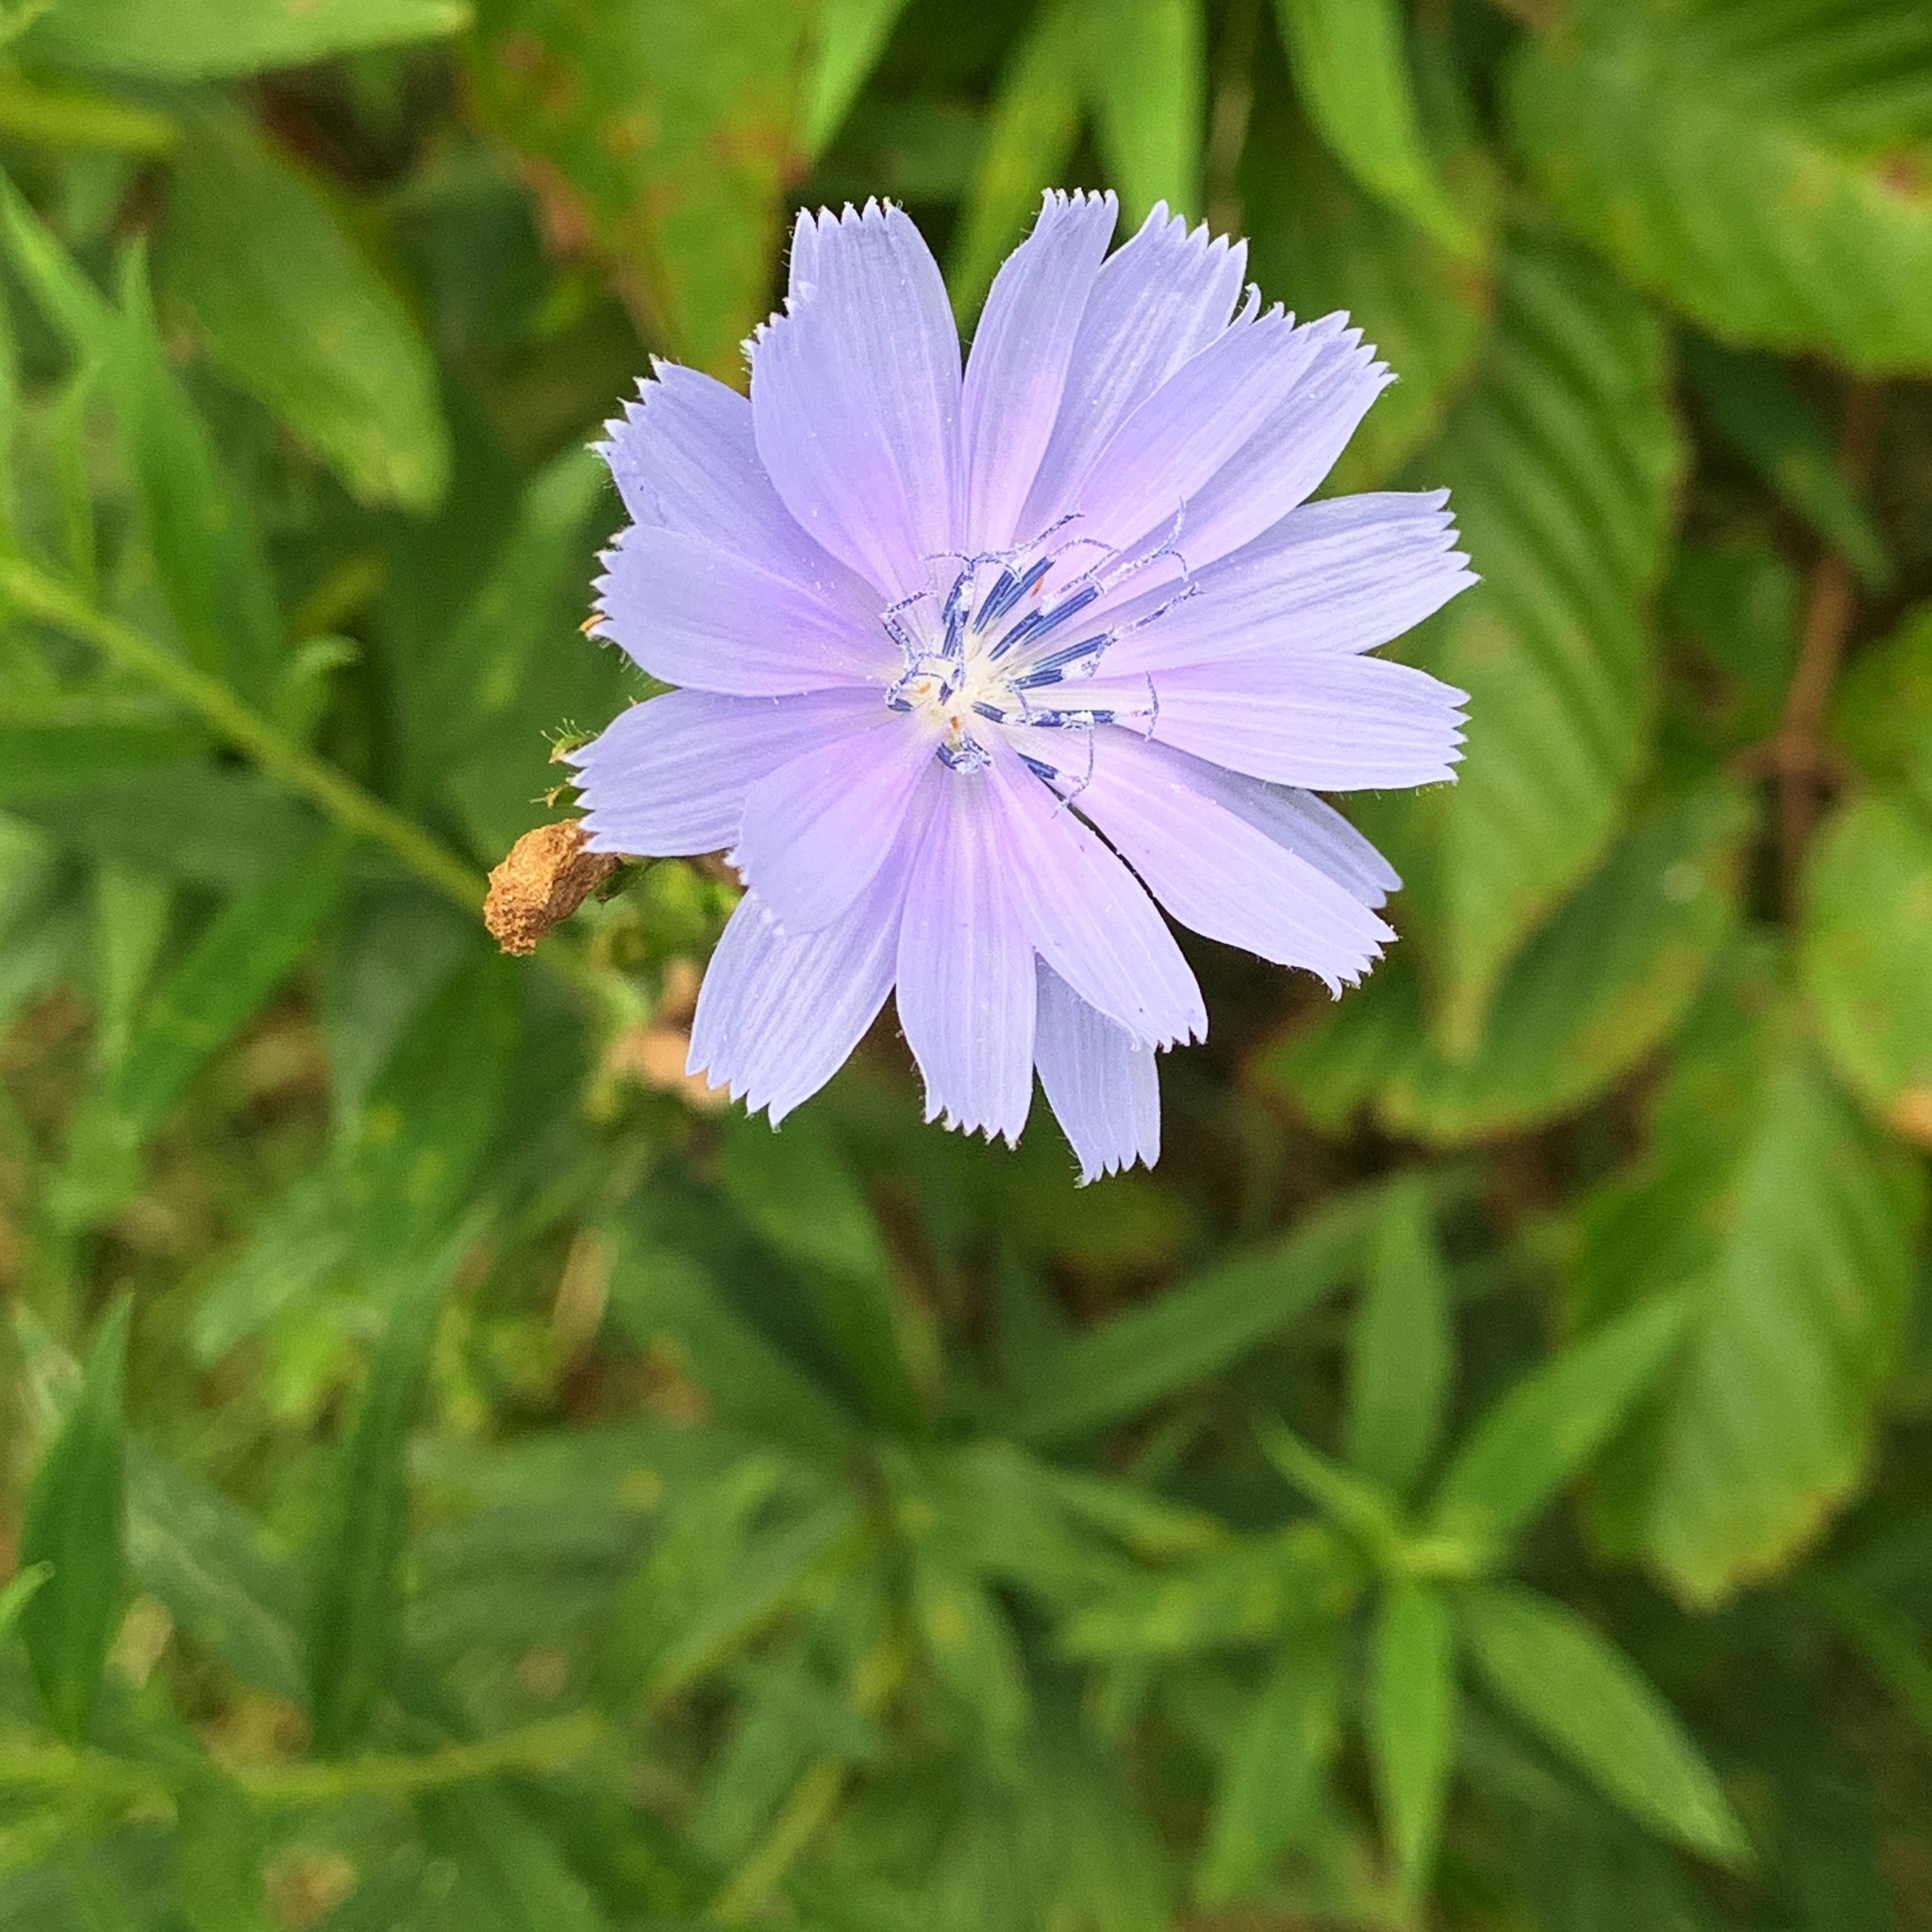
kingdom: Plantae
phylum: Tracheophyta
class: Magnoliopsida
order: Asterales
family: Asteraceae
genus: Cichorium
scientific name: Cichorium intybus
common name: Chicory
